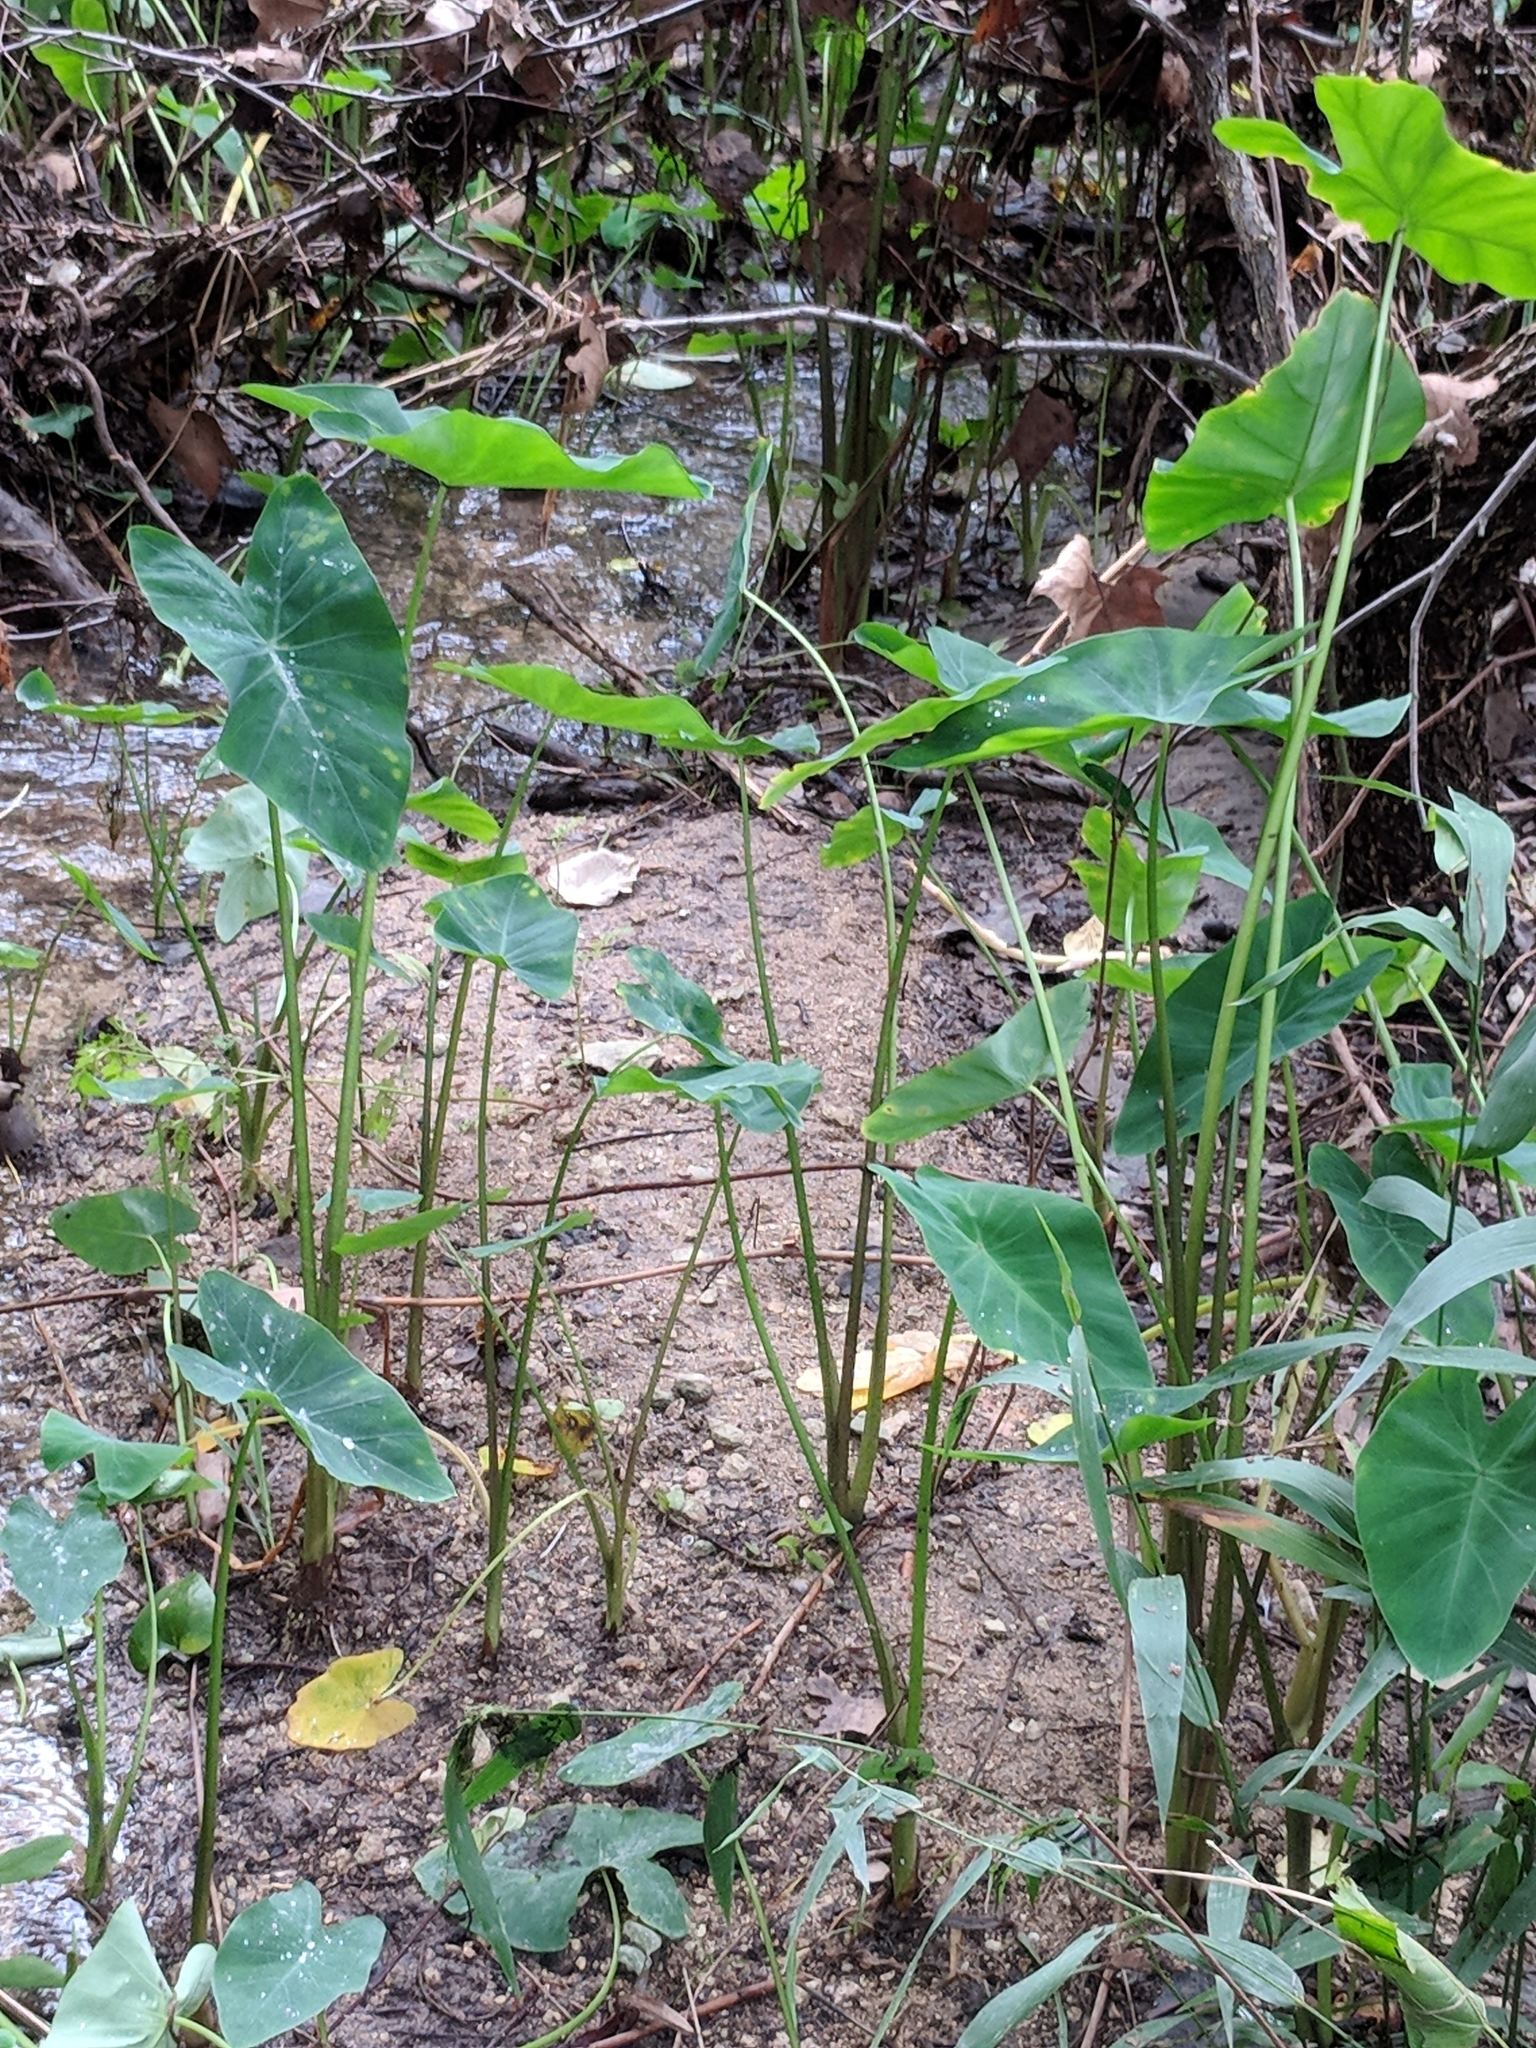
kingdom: Plantae
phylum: Tracheophyta
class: Liliopsida
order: Alismatales
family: Araceae
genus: Colocasia
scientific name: Colocasia esculenta
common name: Taro
